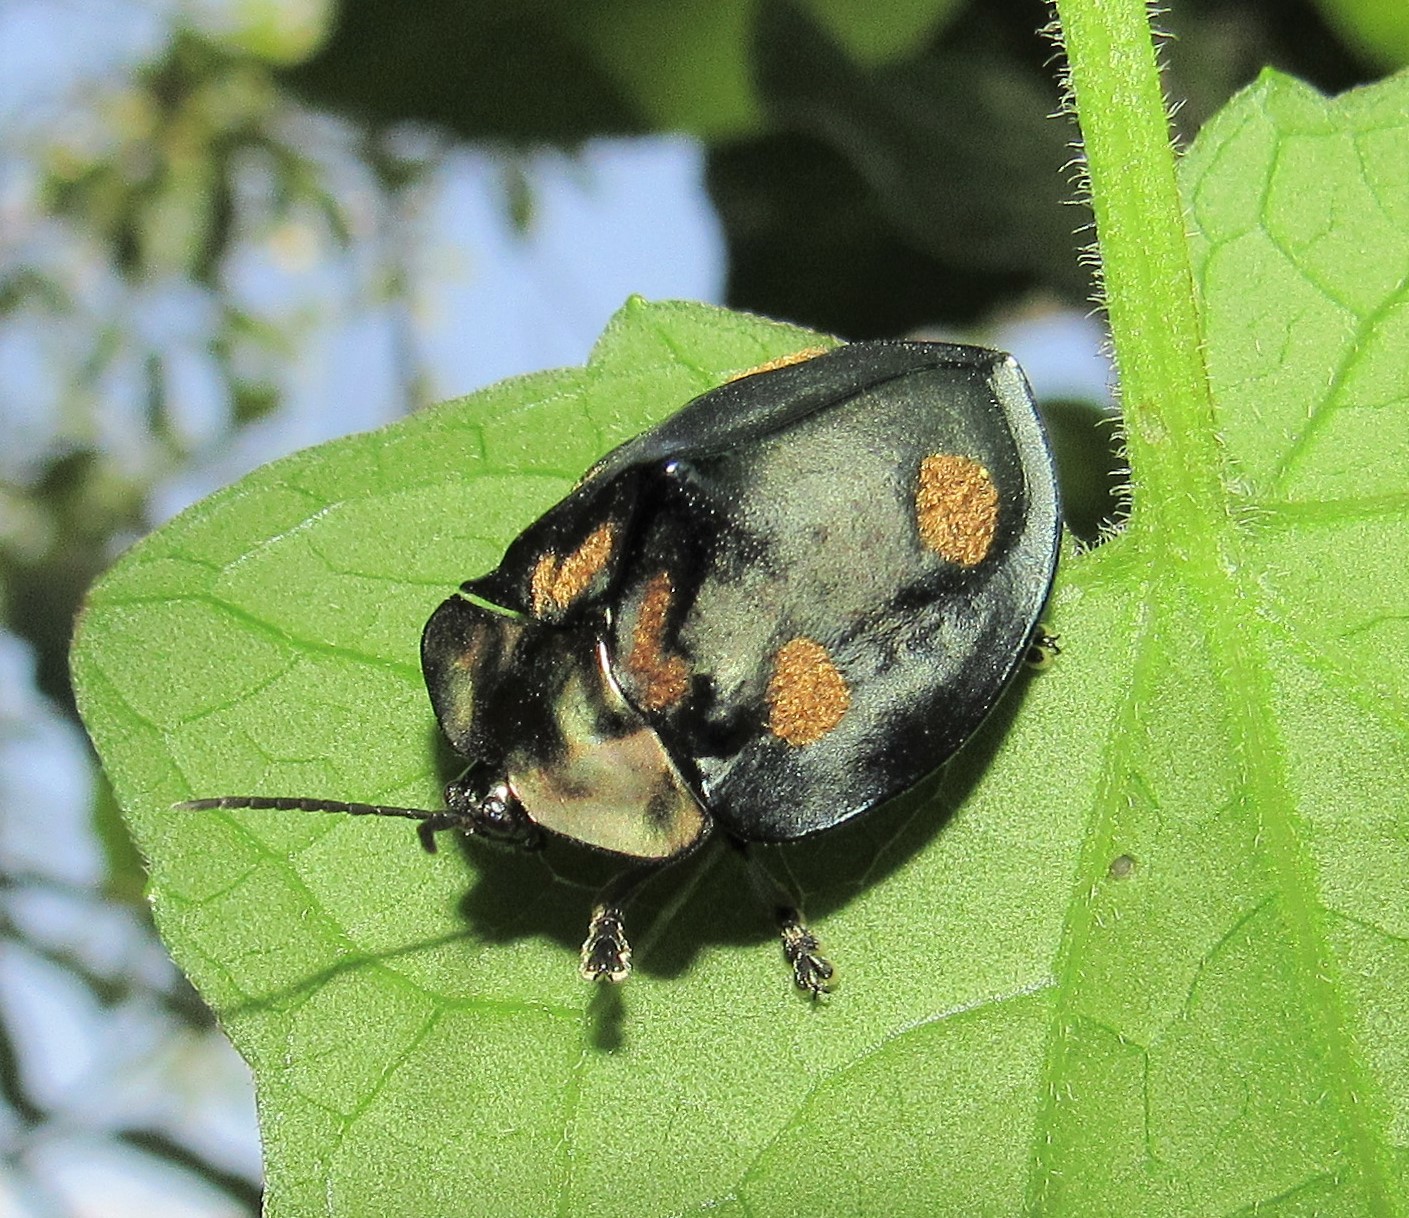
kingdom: Animalia
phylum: Arthropoda
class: Insecta
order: Coleoptera
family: Chrysomelidae
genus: Stolas
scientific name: Stolas chalybaea
